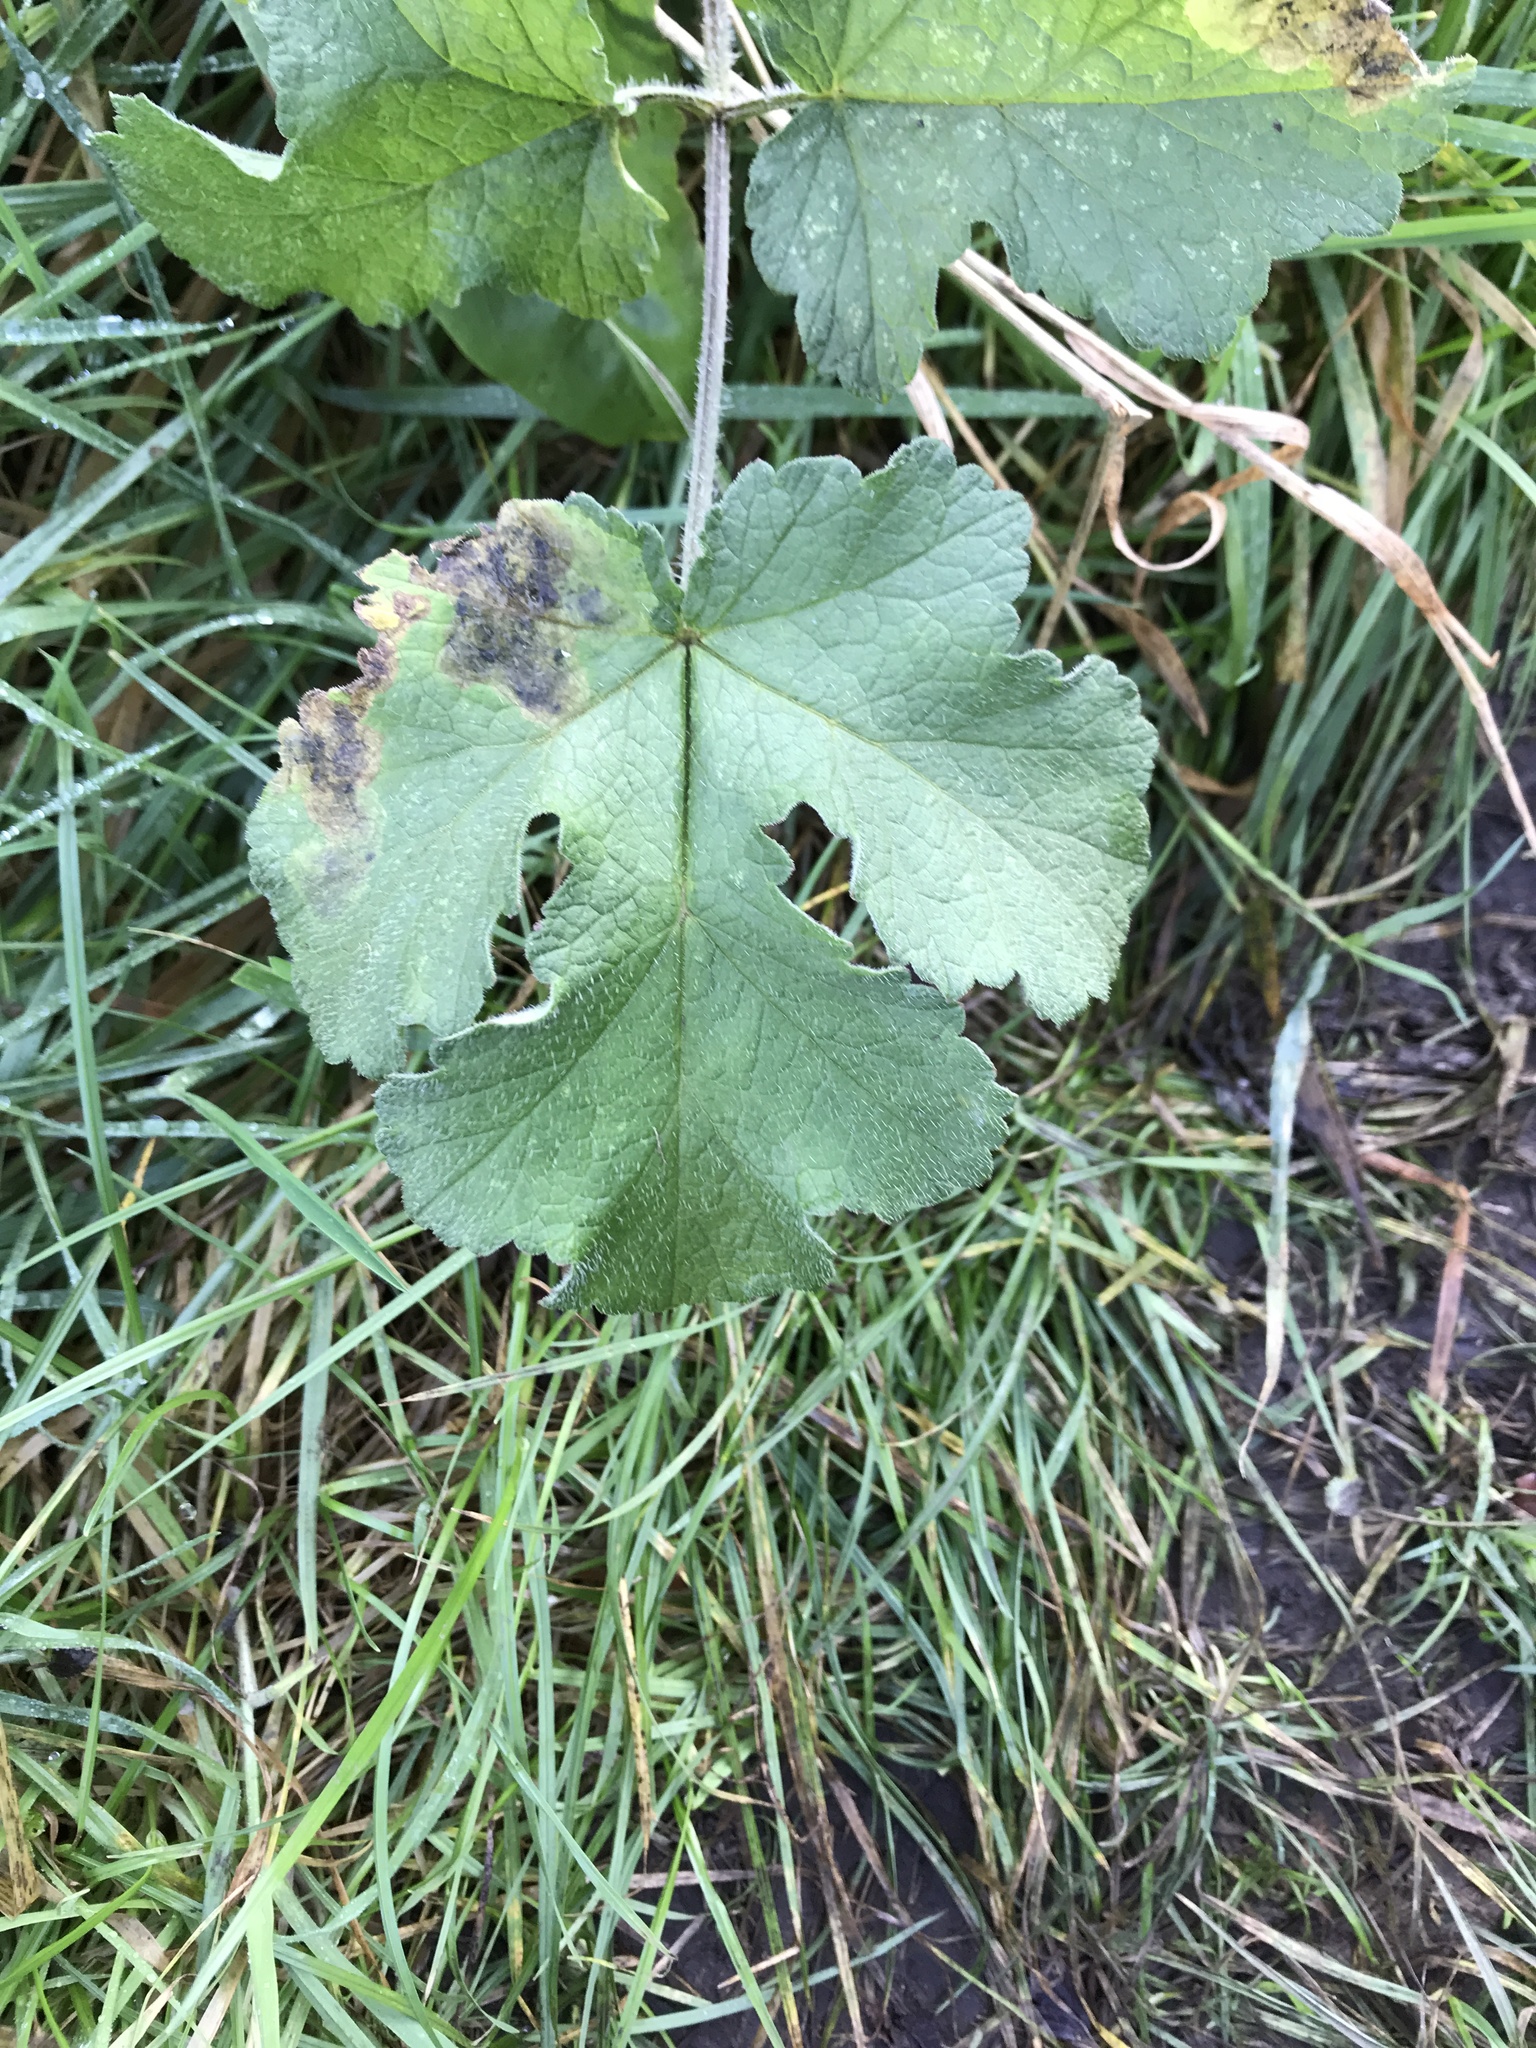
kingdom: Plantae
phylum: Tracheophyta
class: Magnoliopsida
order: Apiales
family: Apiaceae
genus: Heracleum
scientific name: Heracleum sphondylium
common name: Hogweed
